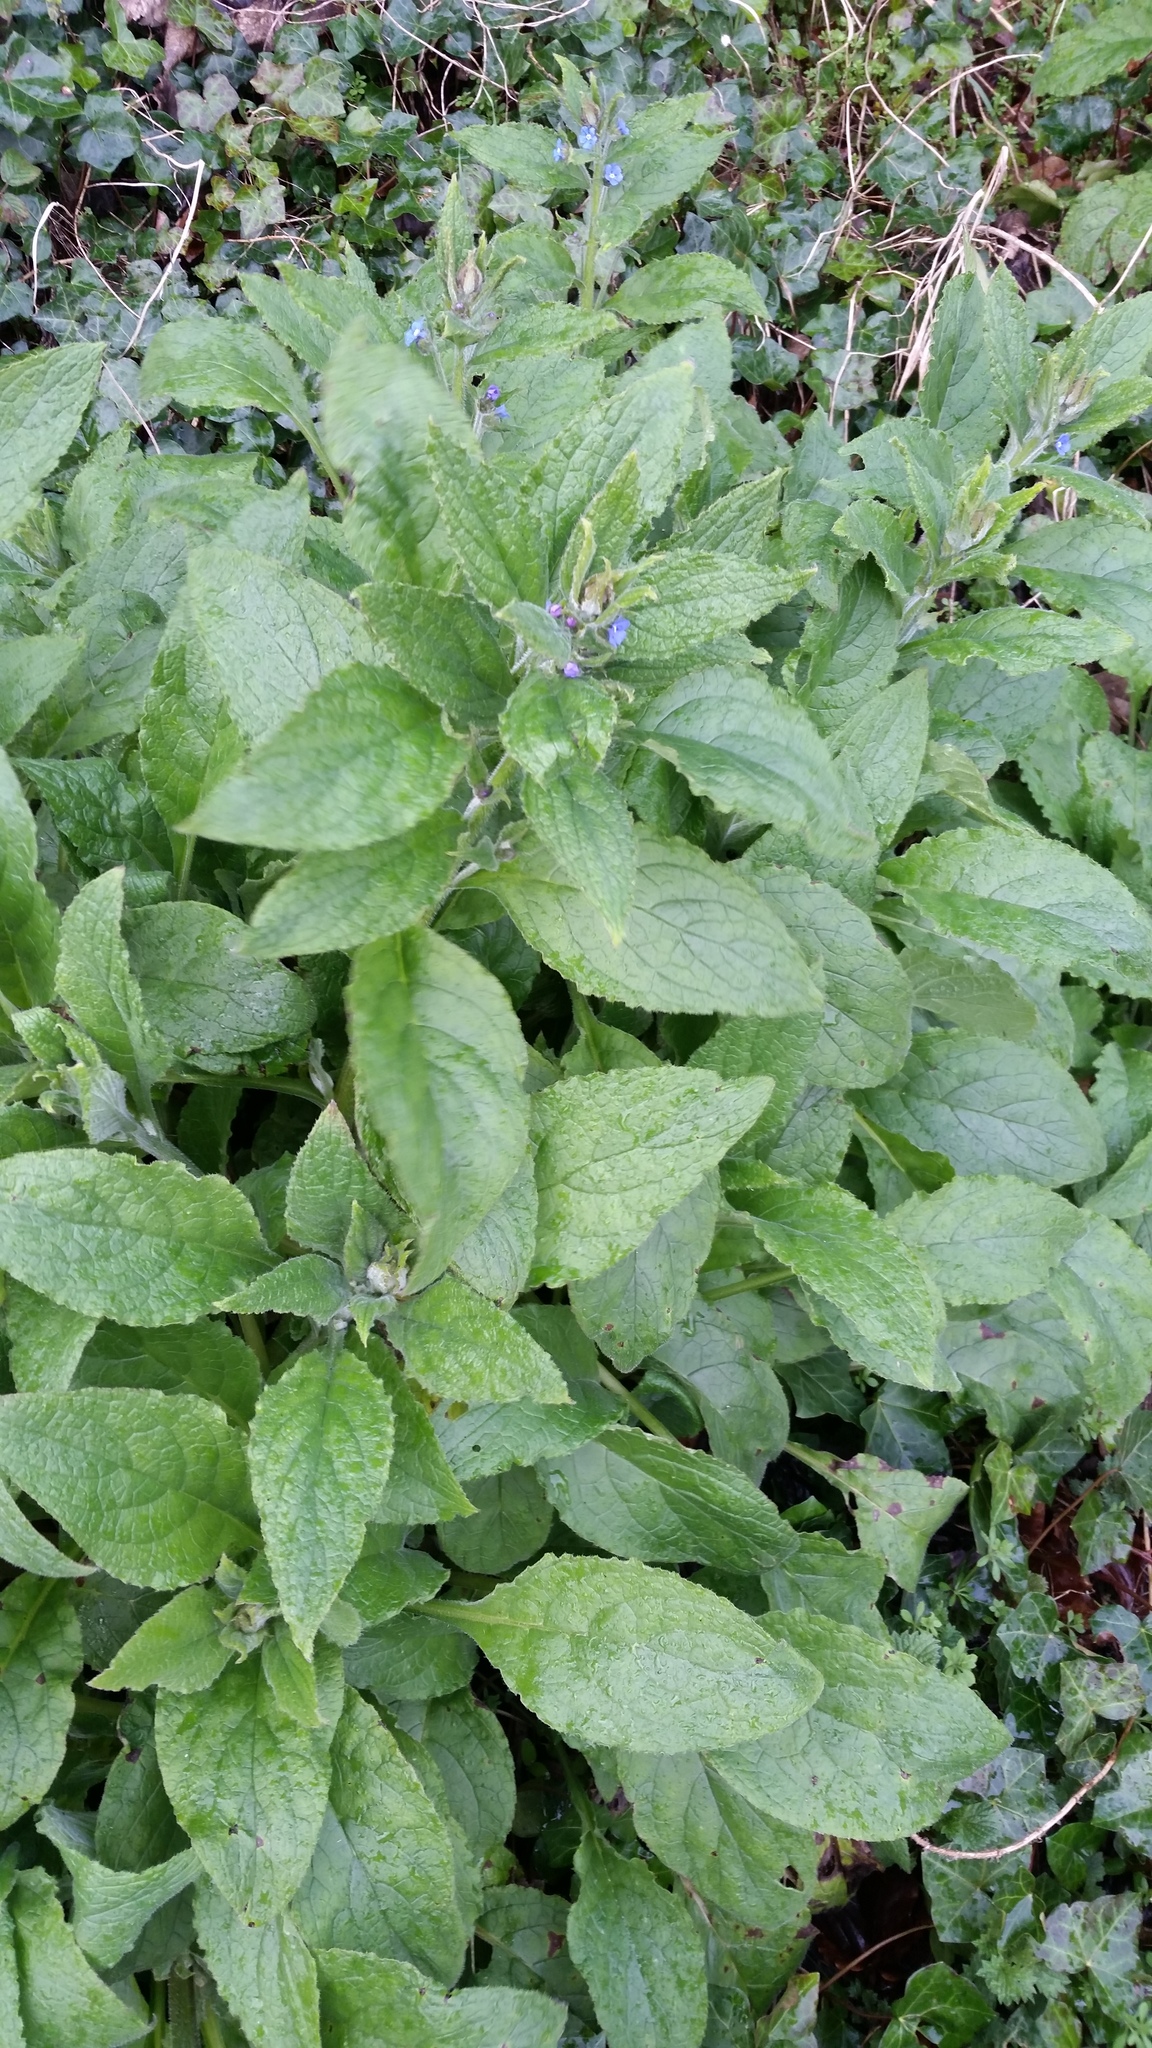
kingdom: Plantae
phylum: Tracheophyta
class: Magnoliopsida
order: Boraginales
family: Boraginaceae
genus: Pentaglottis
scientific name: Pentaglottis sempervirens
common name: Green alkanet
